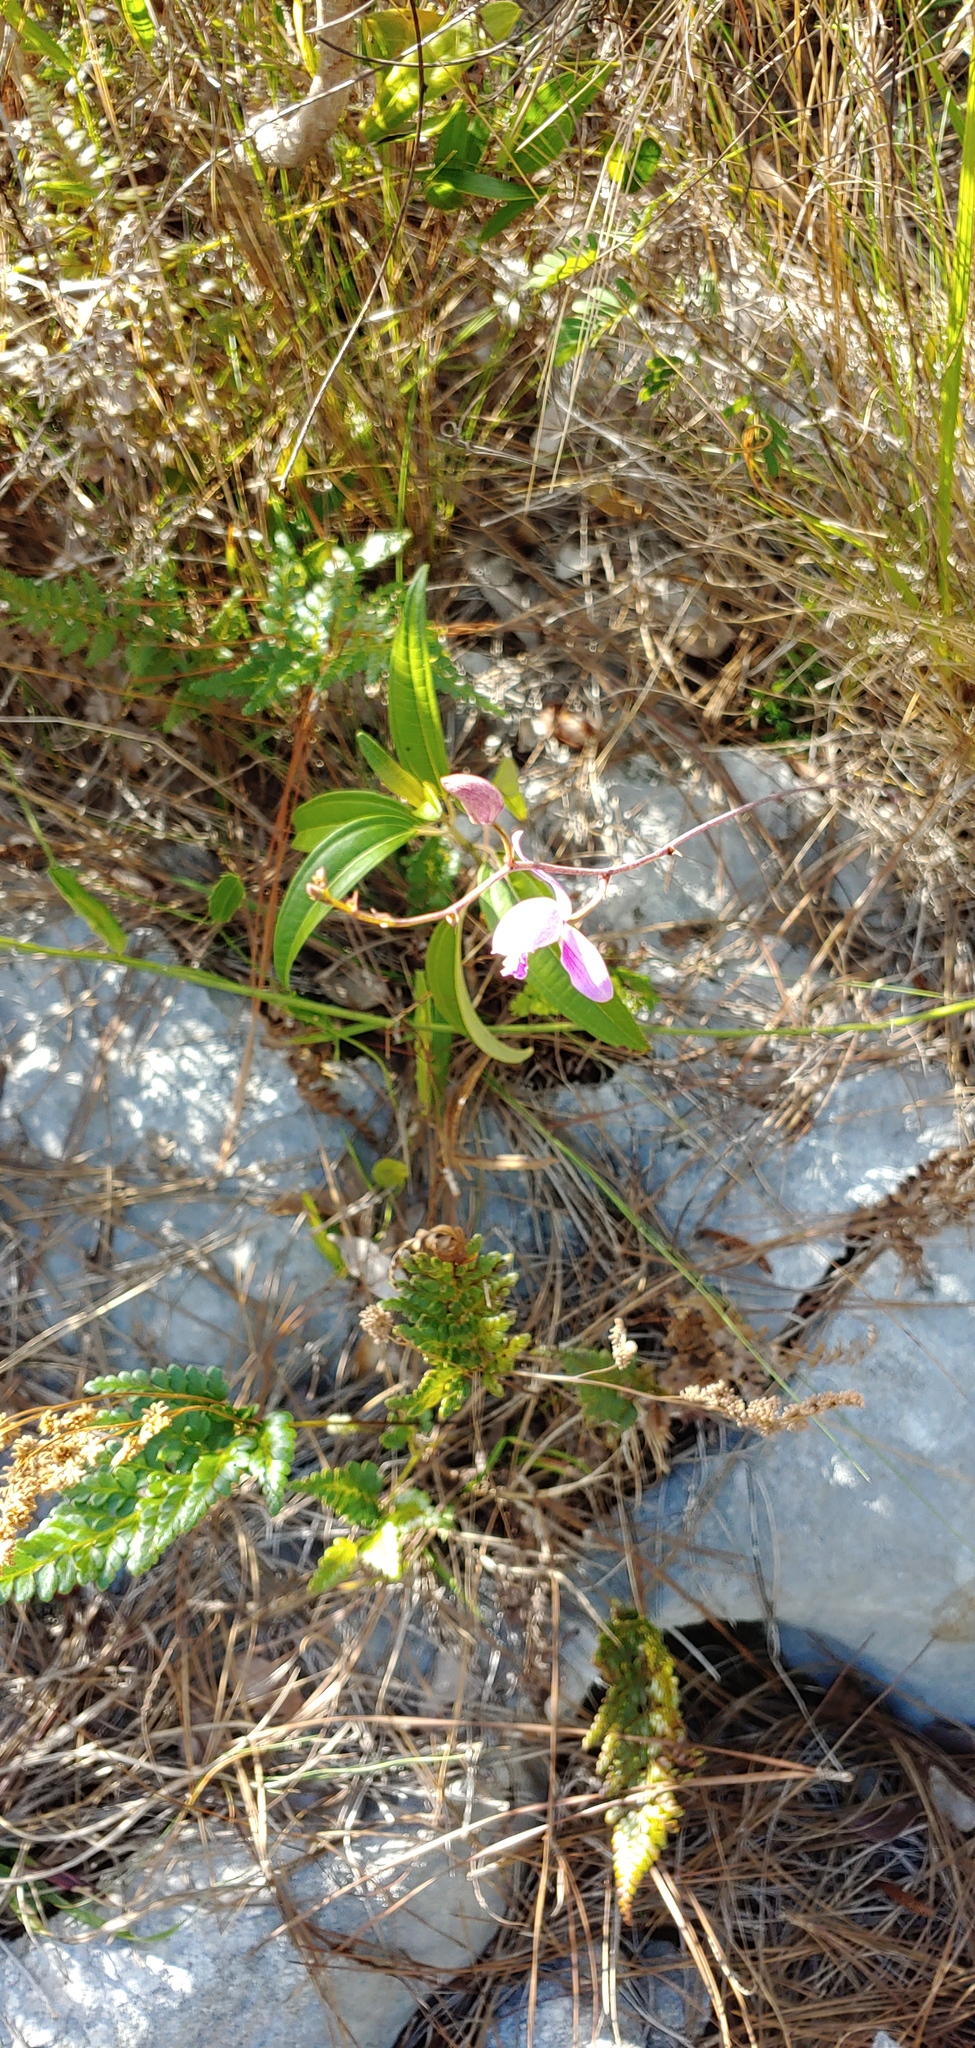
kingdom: Plantae
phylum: Tracheophyta
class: Liliopsida
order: Asparagales
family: Orchidaceae
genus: Bletia
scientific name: Bletia purpurea
